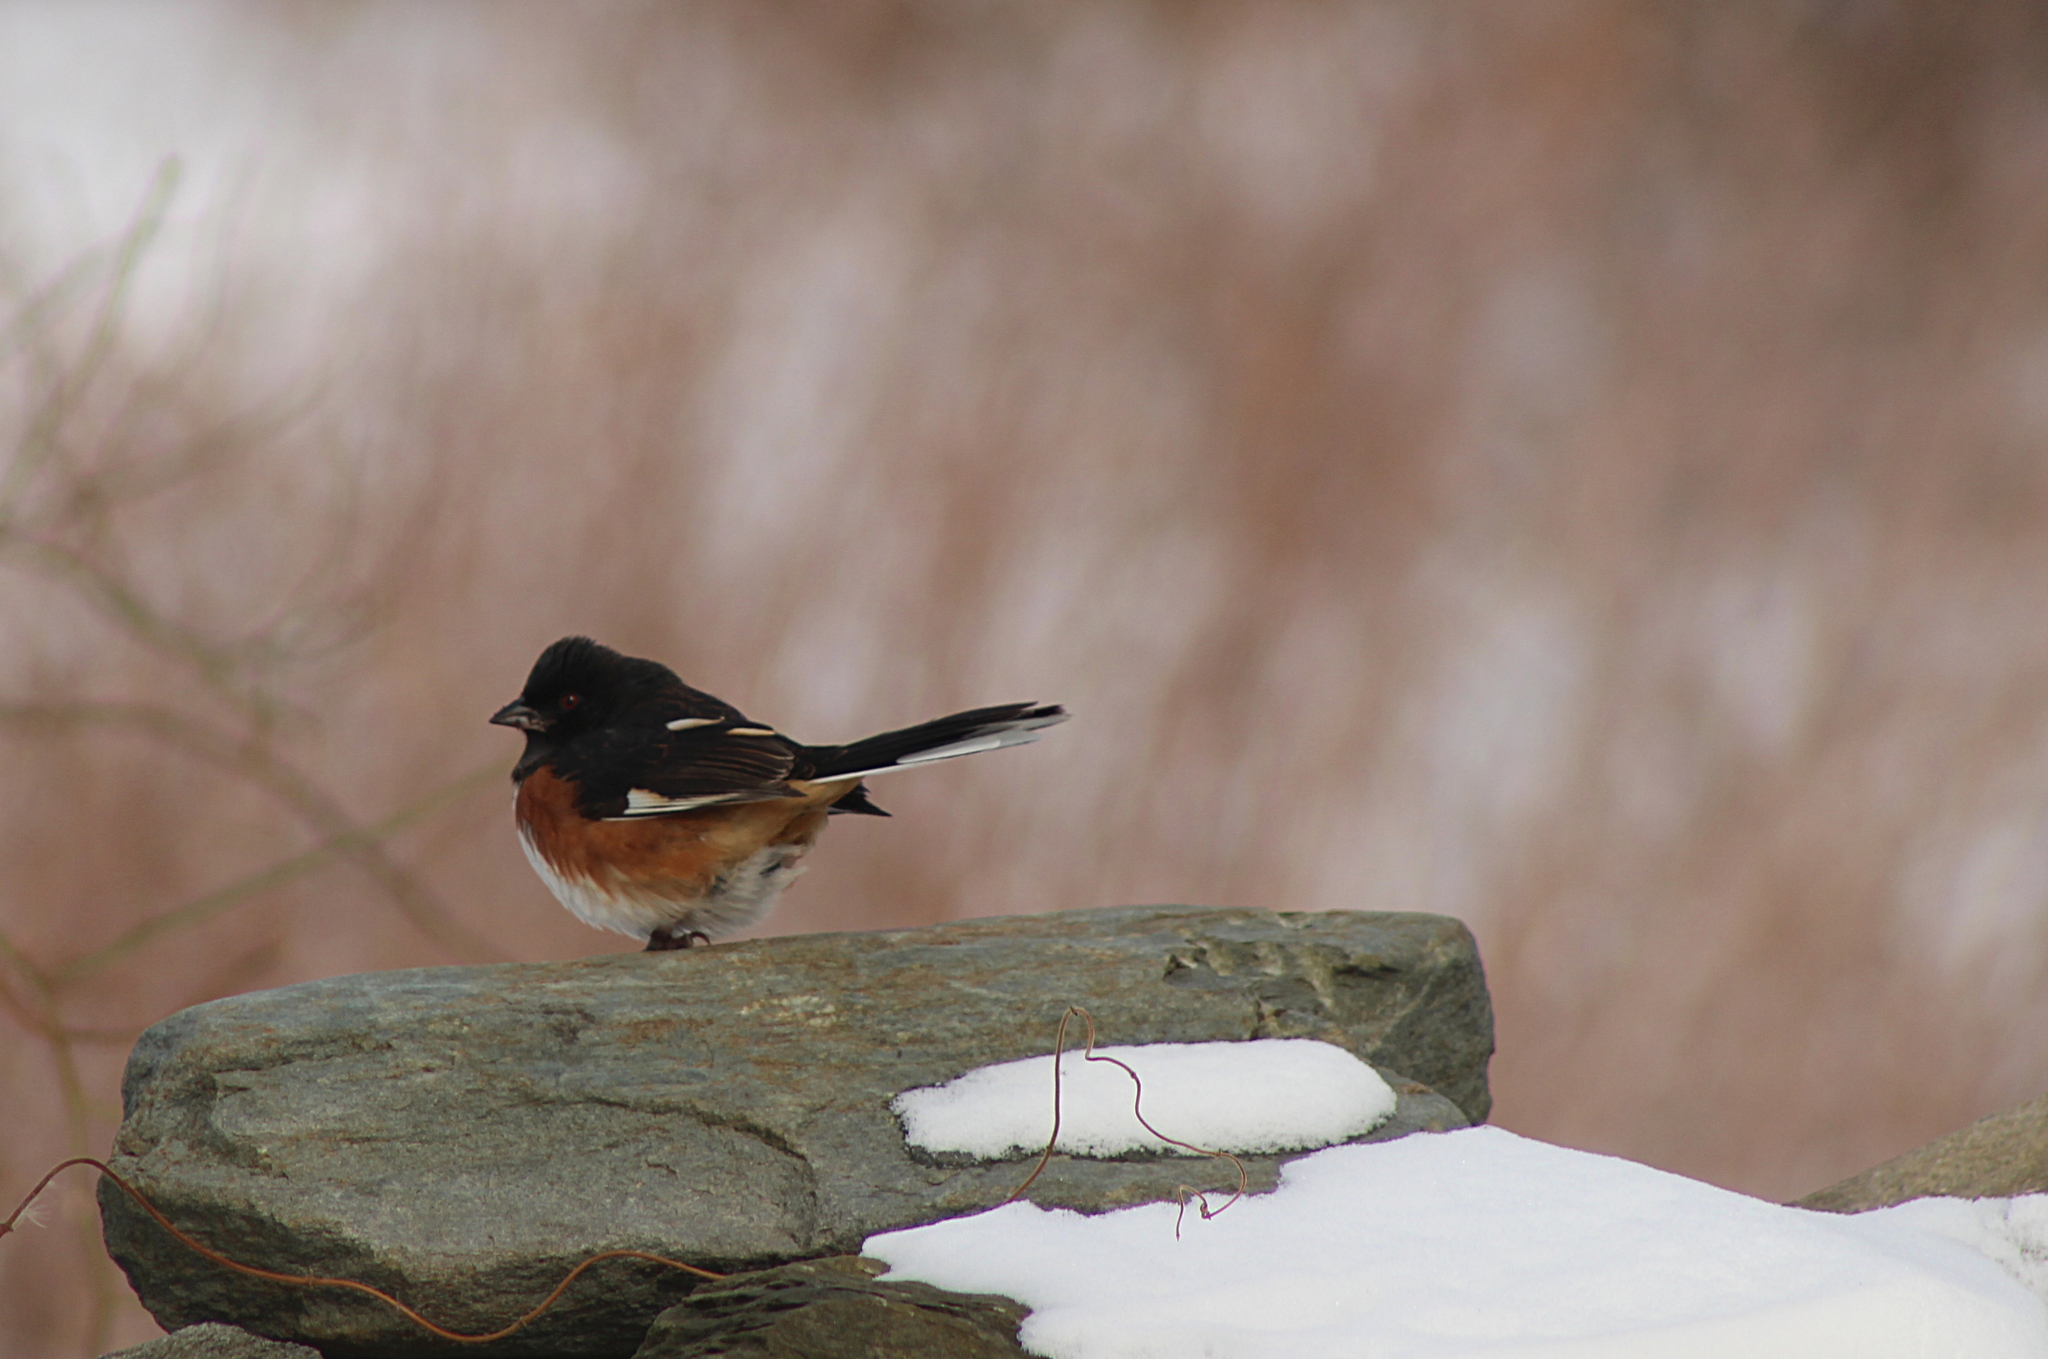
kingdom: Animalia
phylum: Chordata
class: Aves
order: Passeriformes
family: Passerellidae
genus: Pipilo
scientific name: Pipilo erythrophthalmus
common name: Eastern towhee
